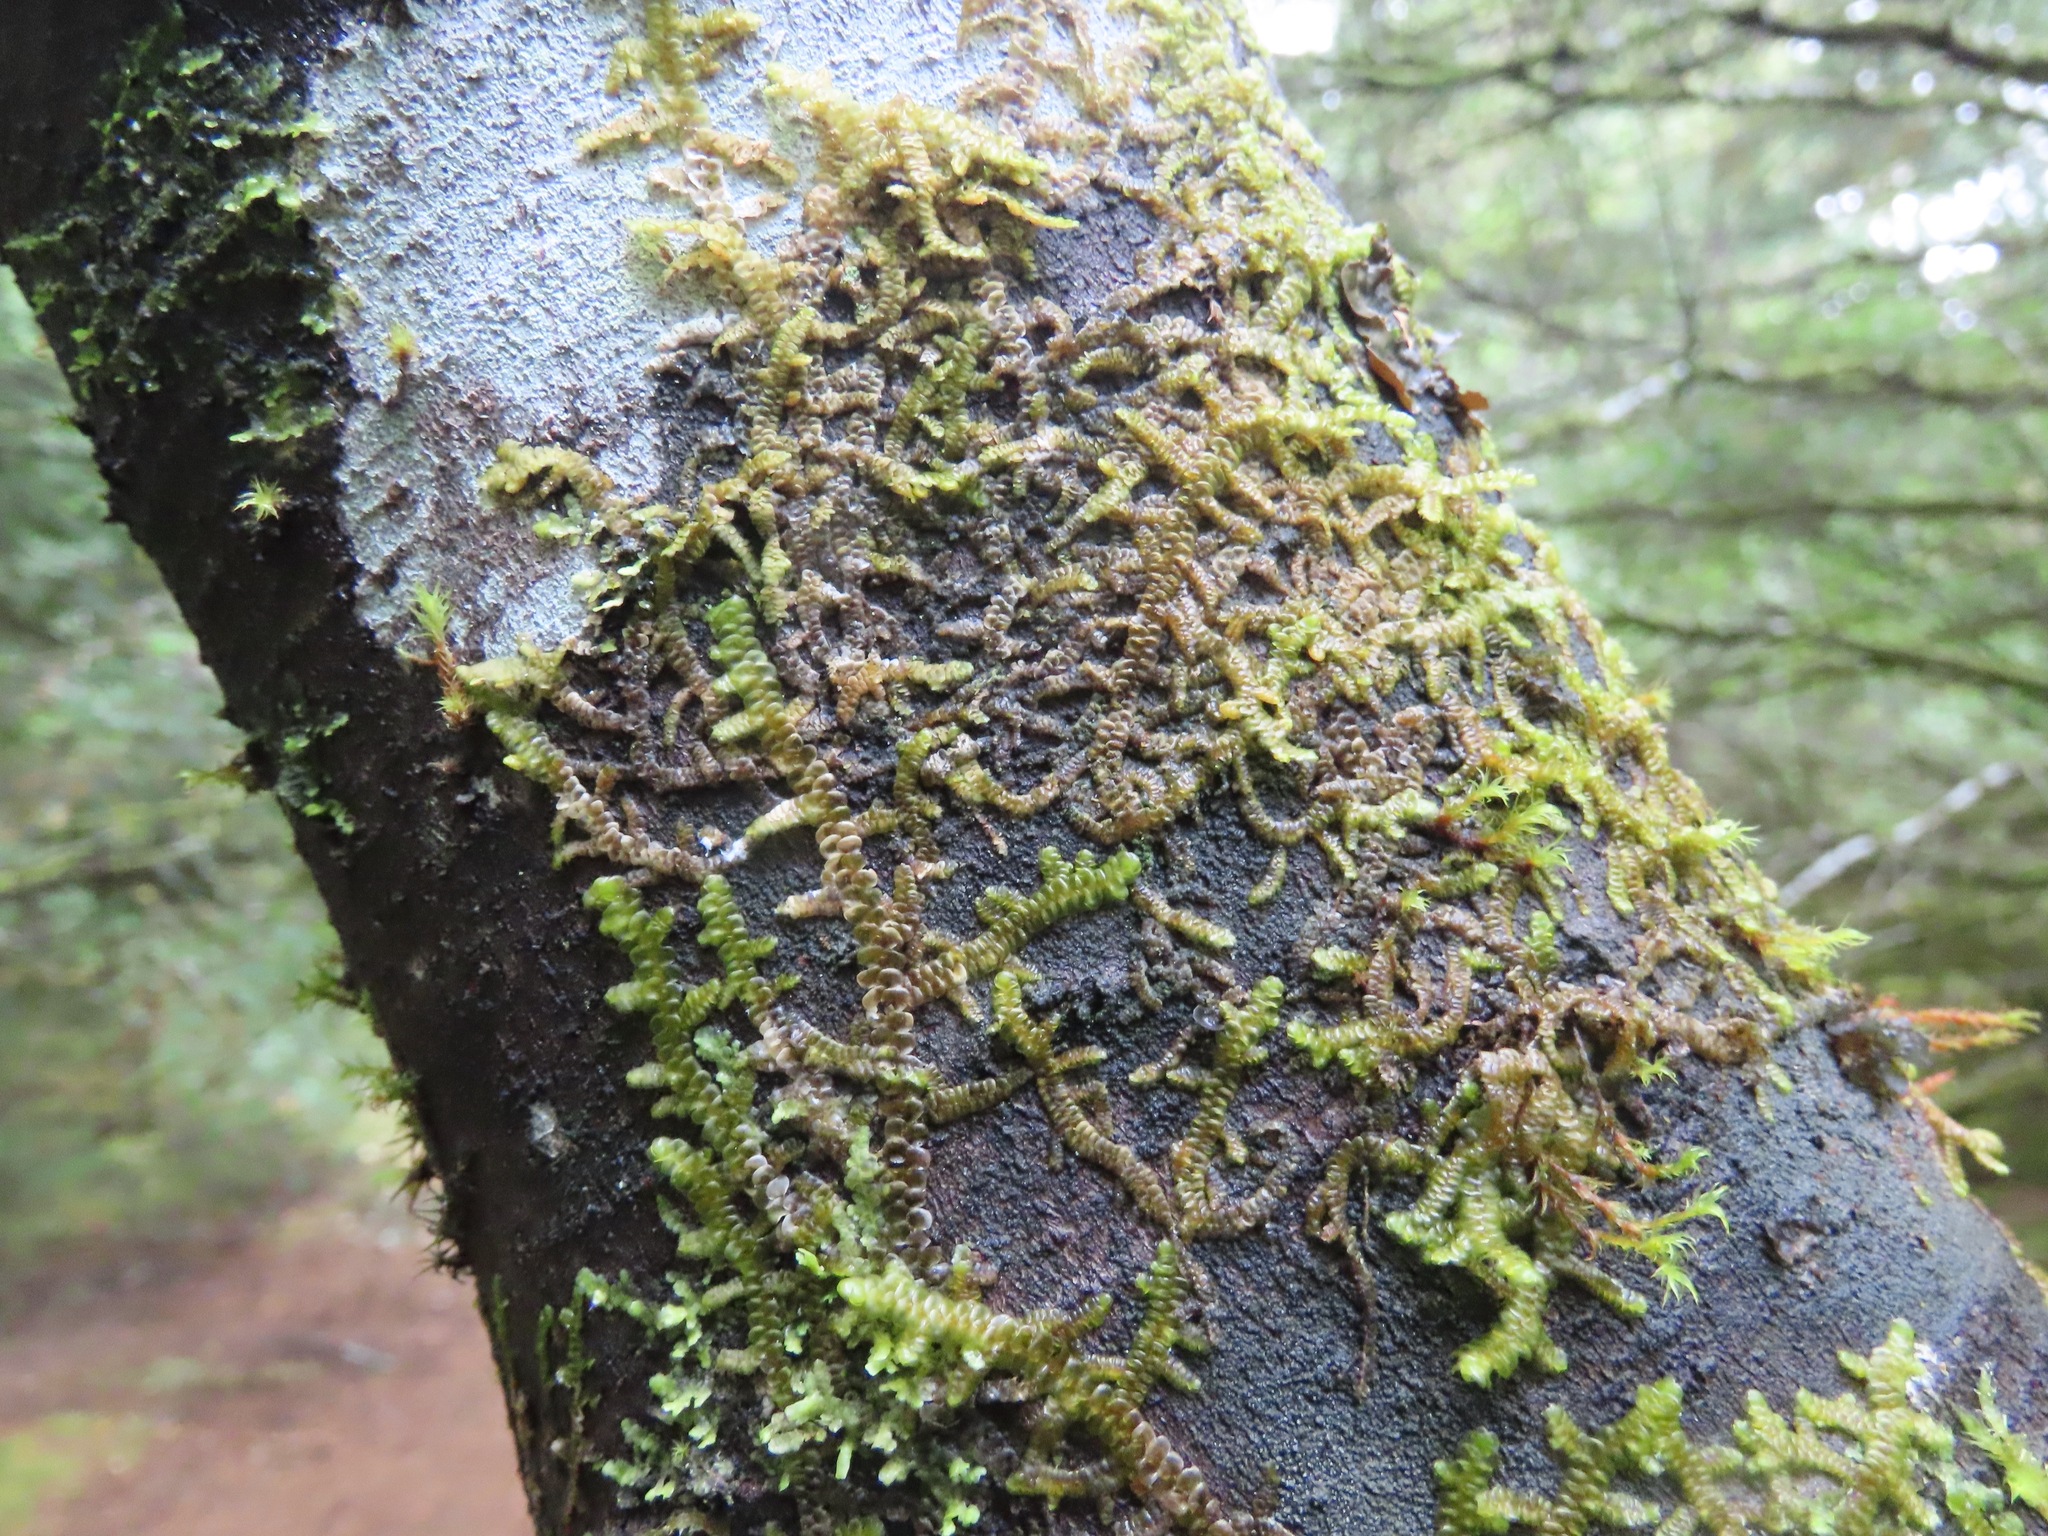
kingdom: Plantae
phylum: Marchantiophyta
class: Jungermanniopsida
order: Porellales
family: Porellaceae
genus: Porella
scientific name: Porella navicularis
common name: Tree ruffle liverwort
